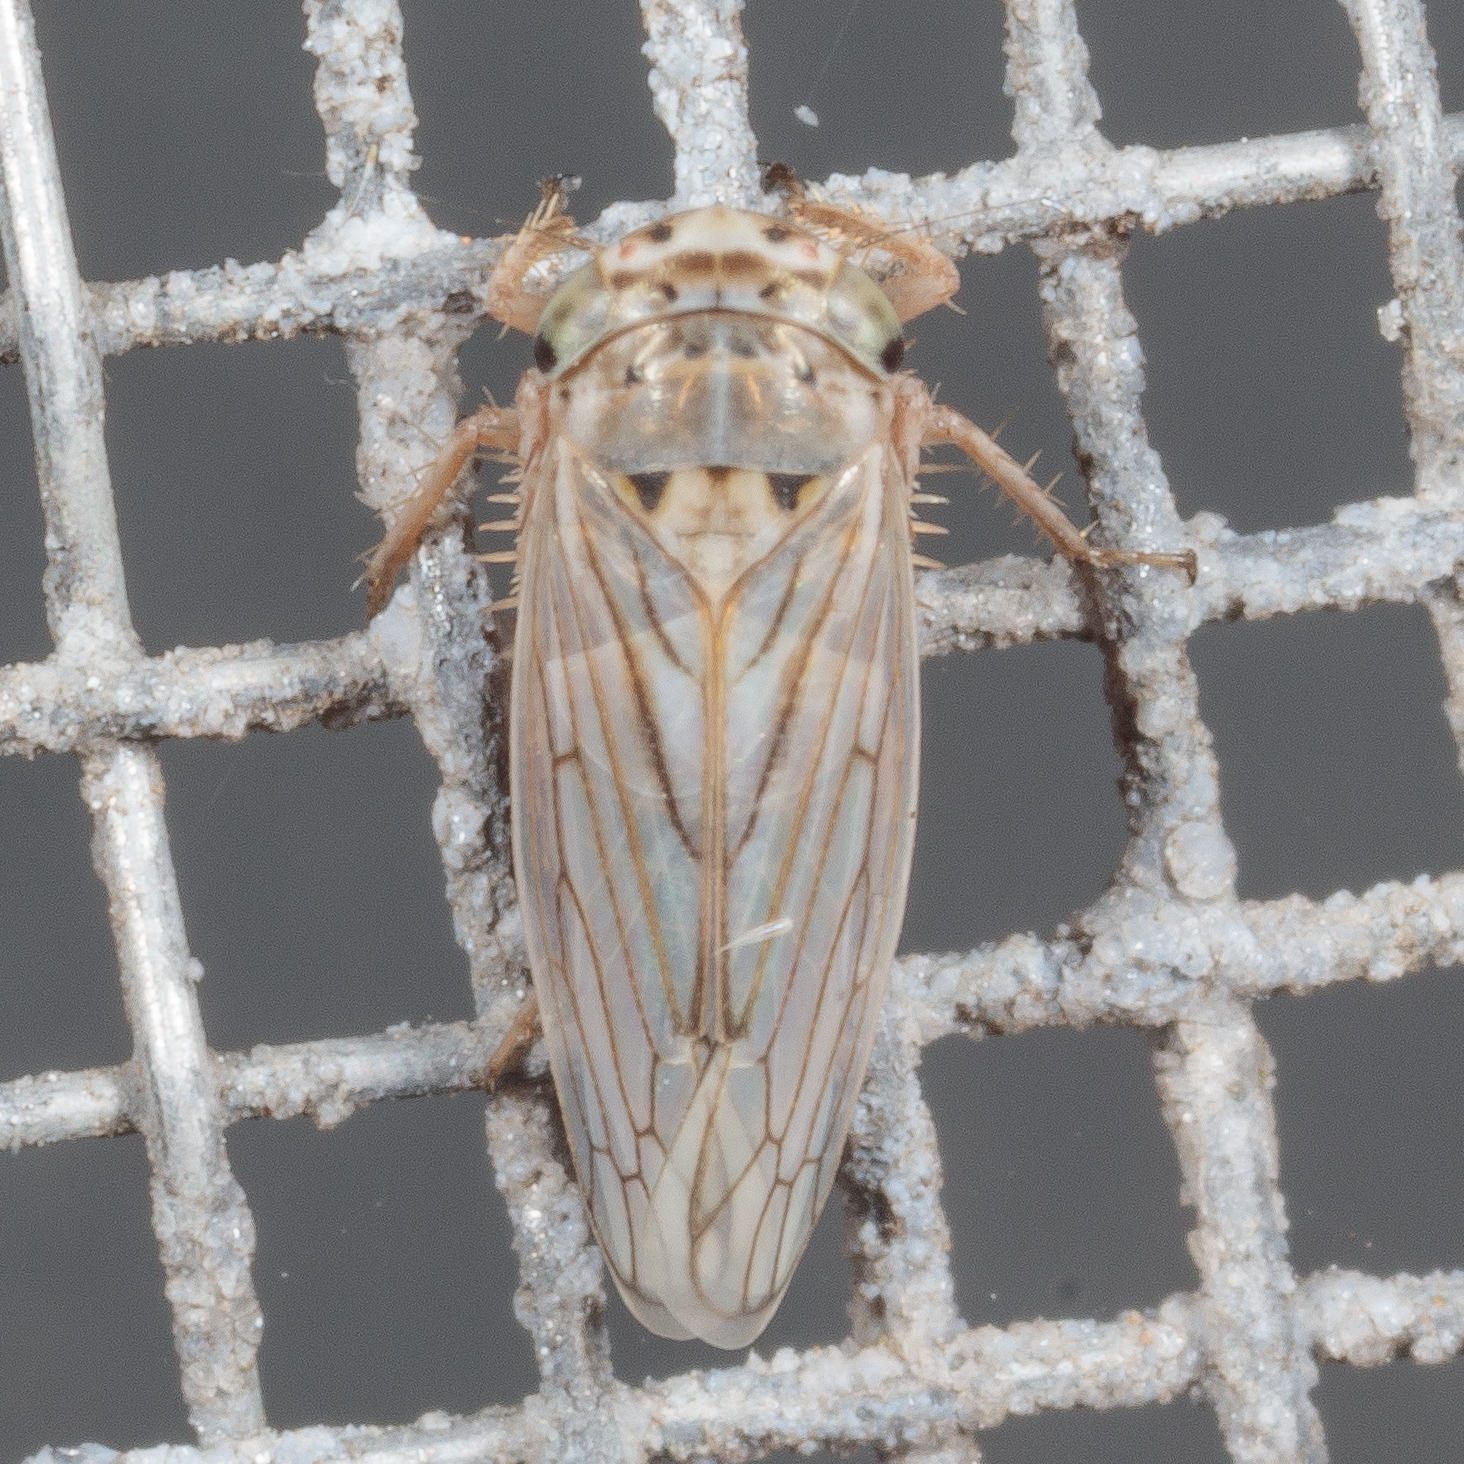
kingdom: Animalia
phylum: Arthropoda
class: Insecta
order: Hemiptera
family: Cicadellidae
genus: Exitianus
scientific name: Exitianus exitiosus
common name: Gray lawn leafhopper
